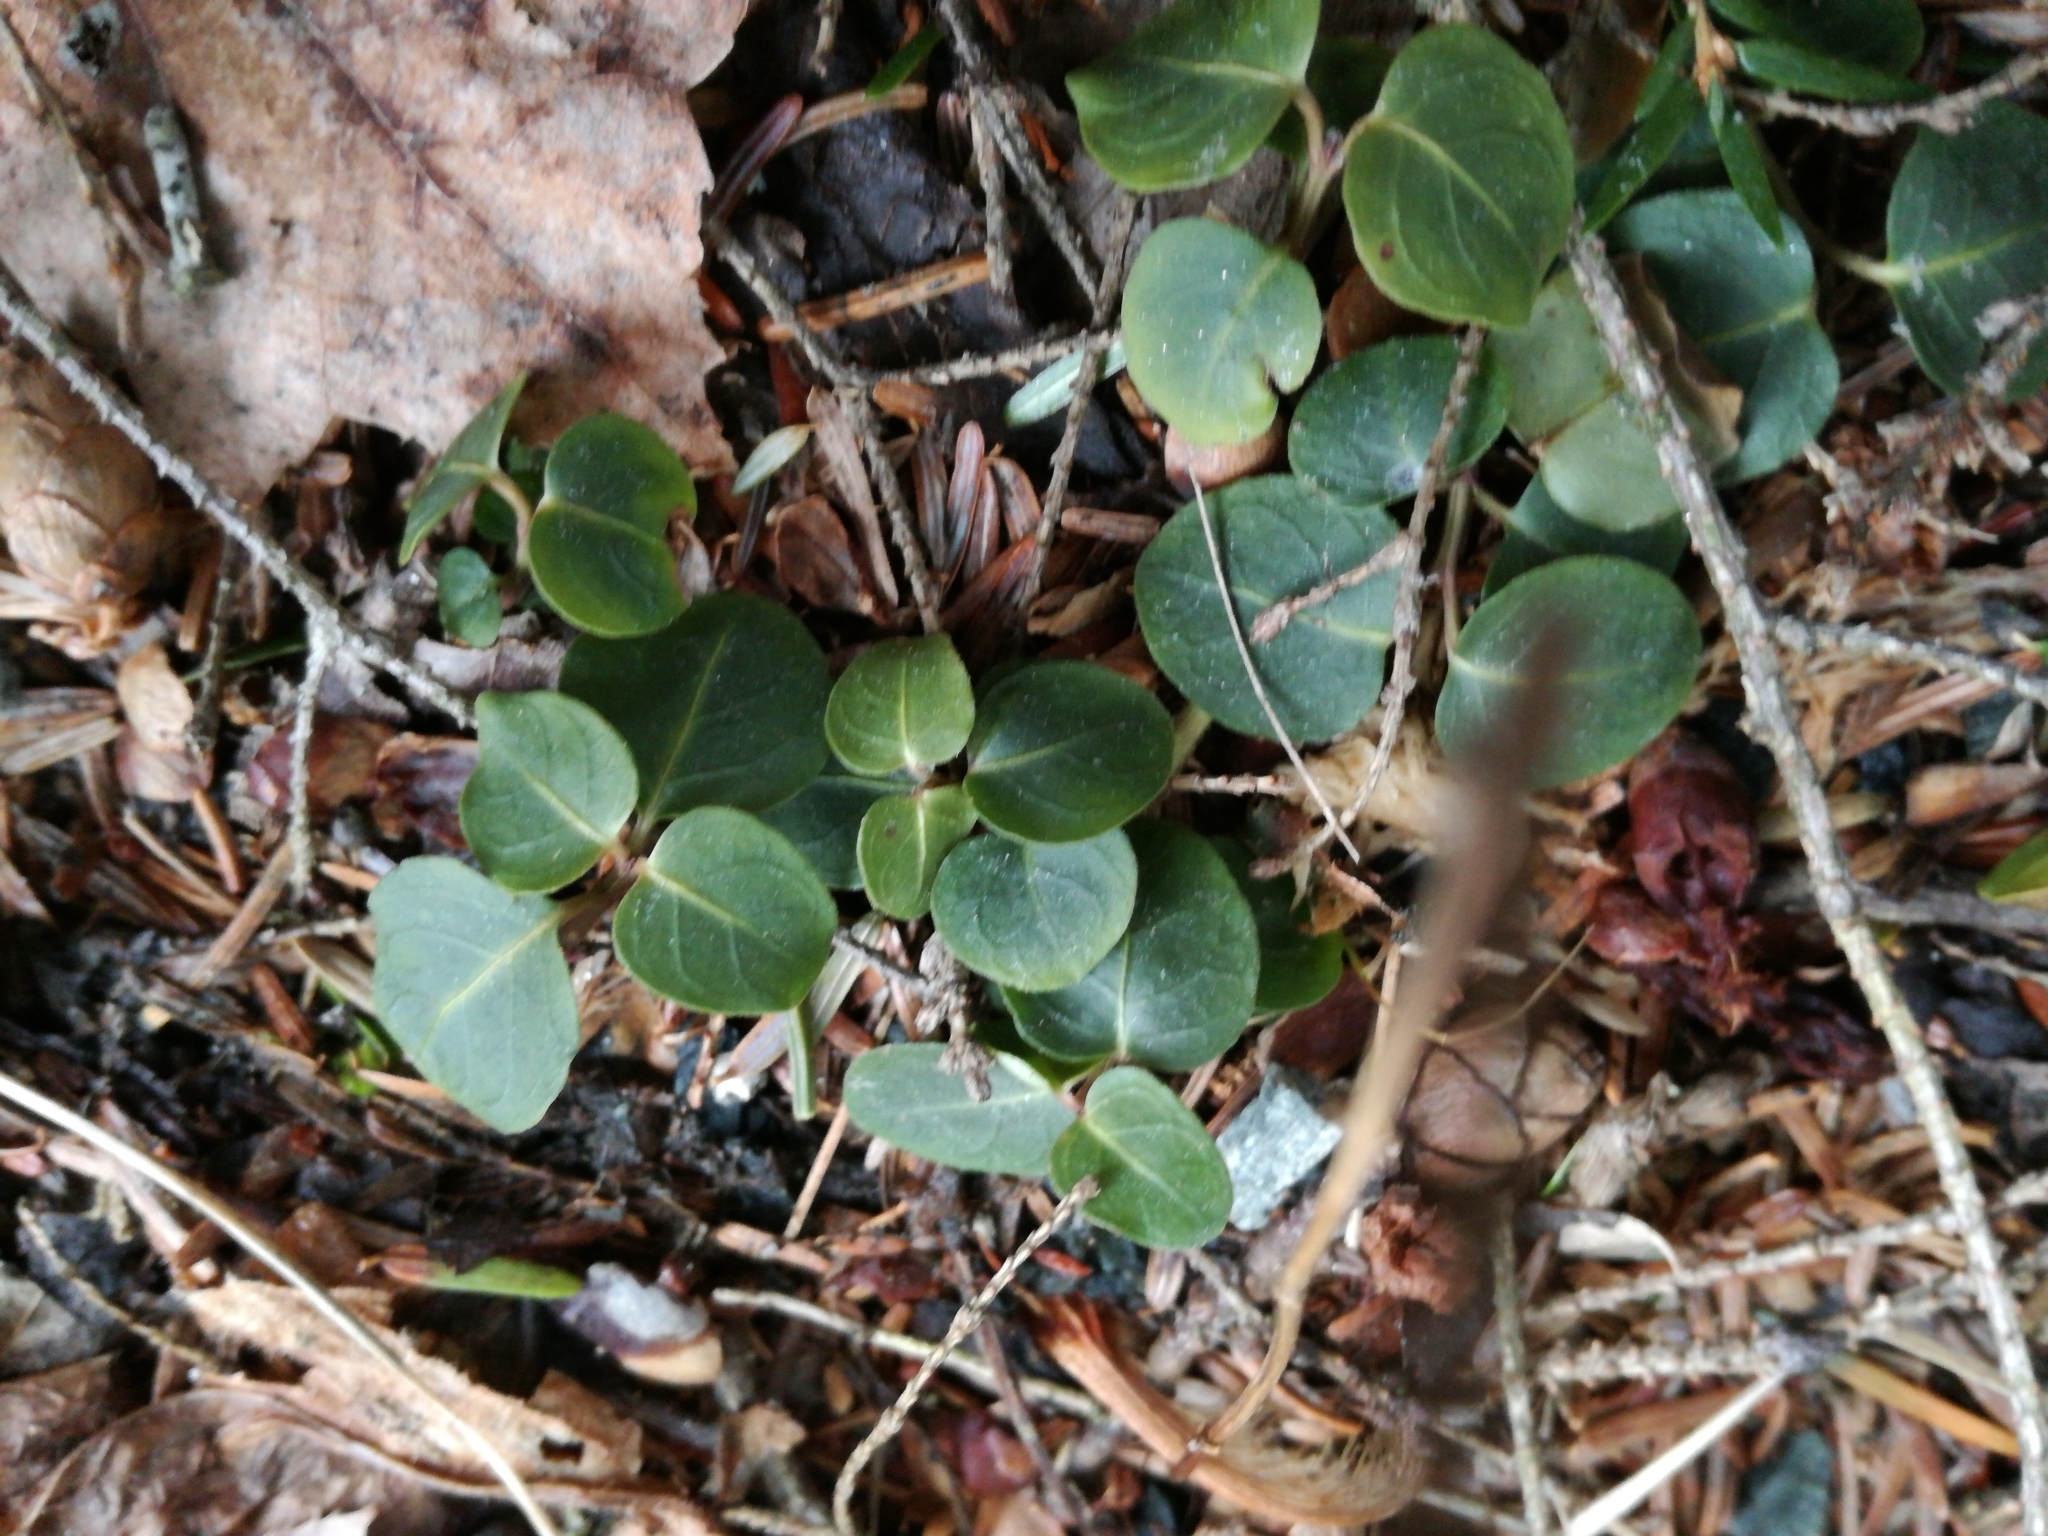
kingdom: Plantae
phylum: Tracheophyta
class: Magnoliopsida
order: Gentianales
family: Rubiaceae
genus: Mitchella
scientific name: Mitchella repens
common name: Partridge-berry
